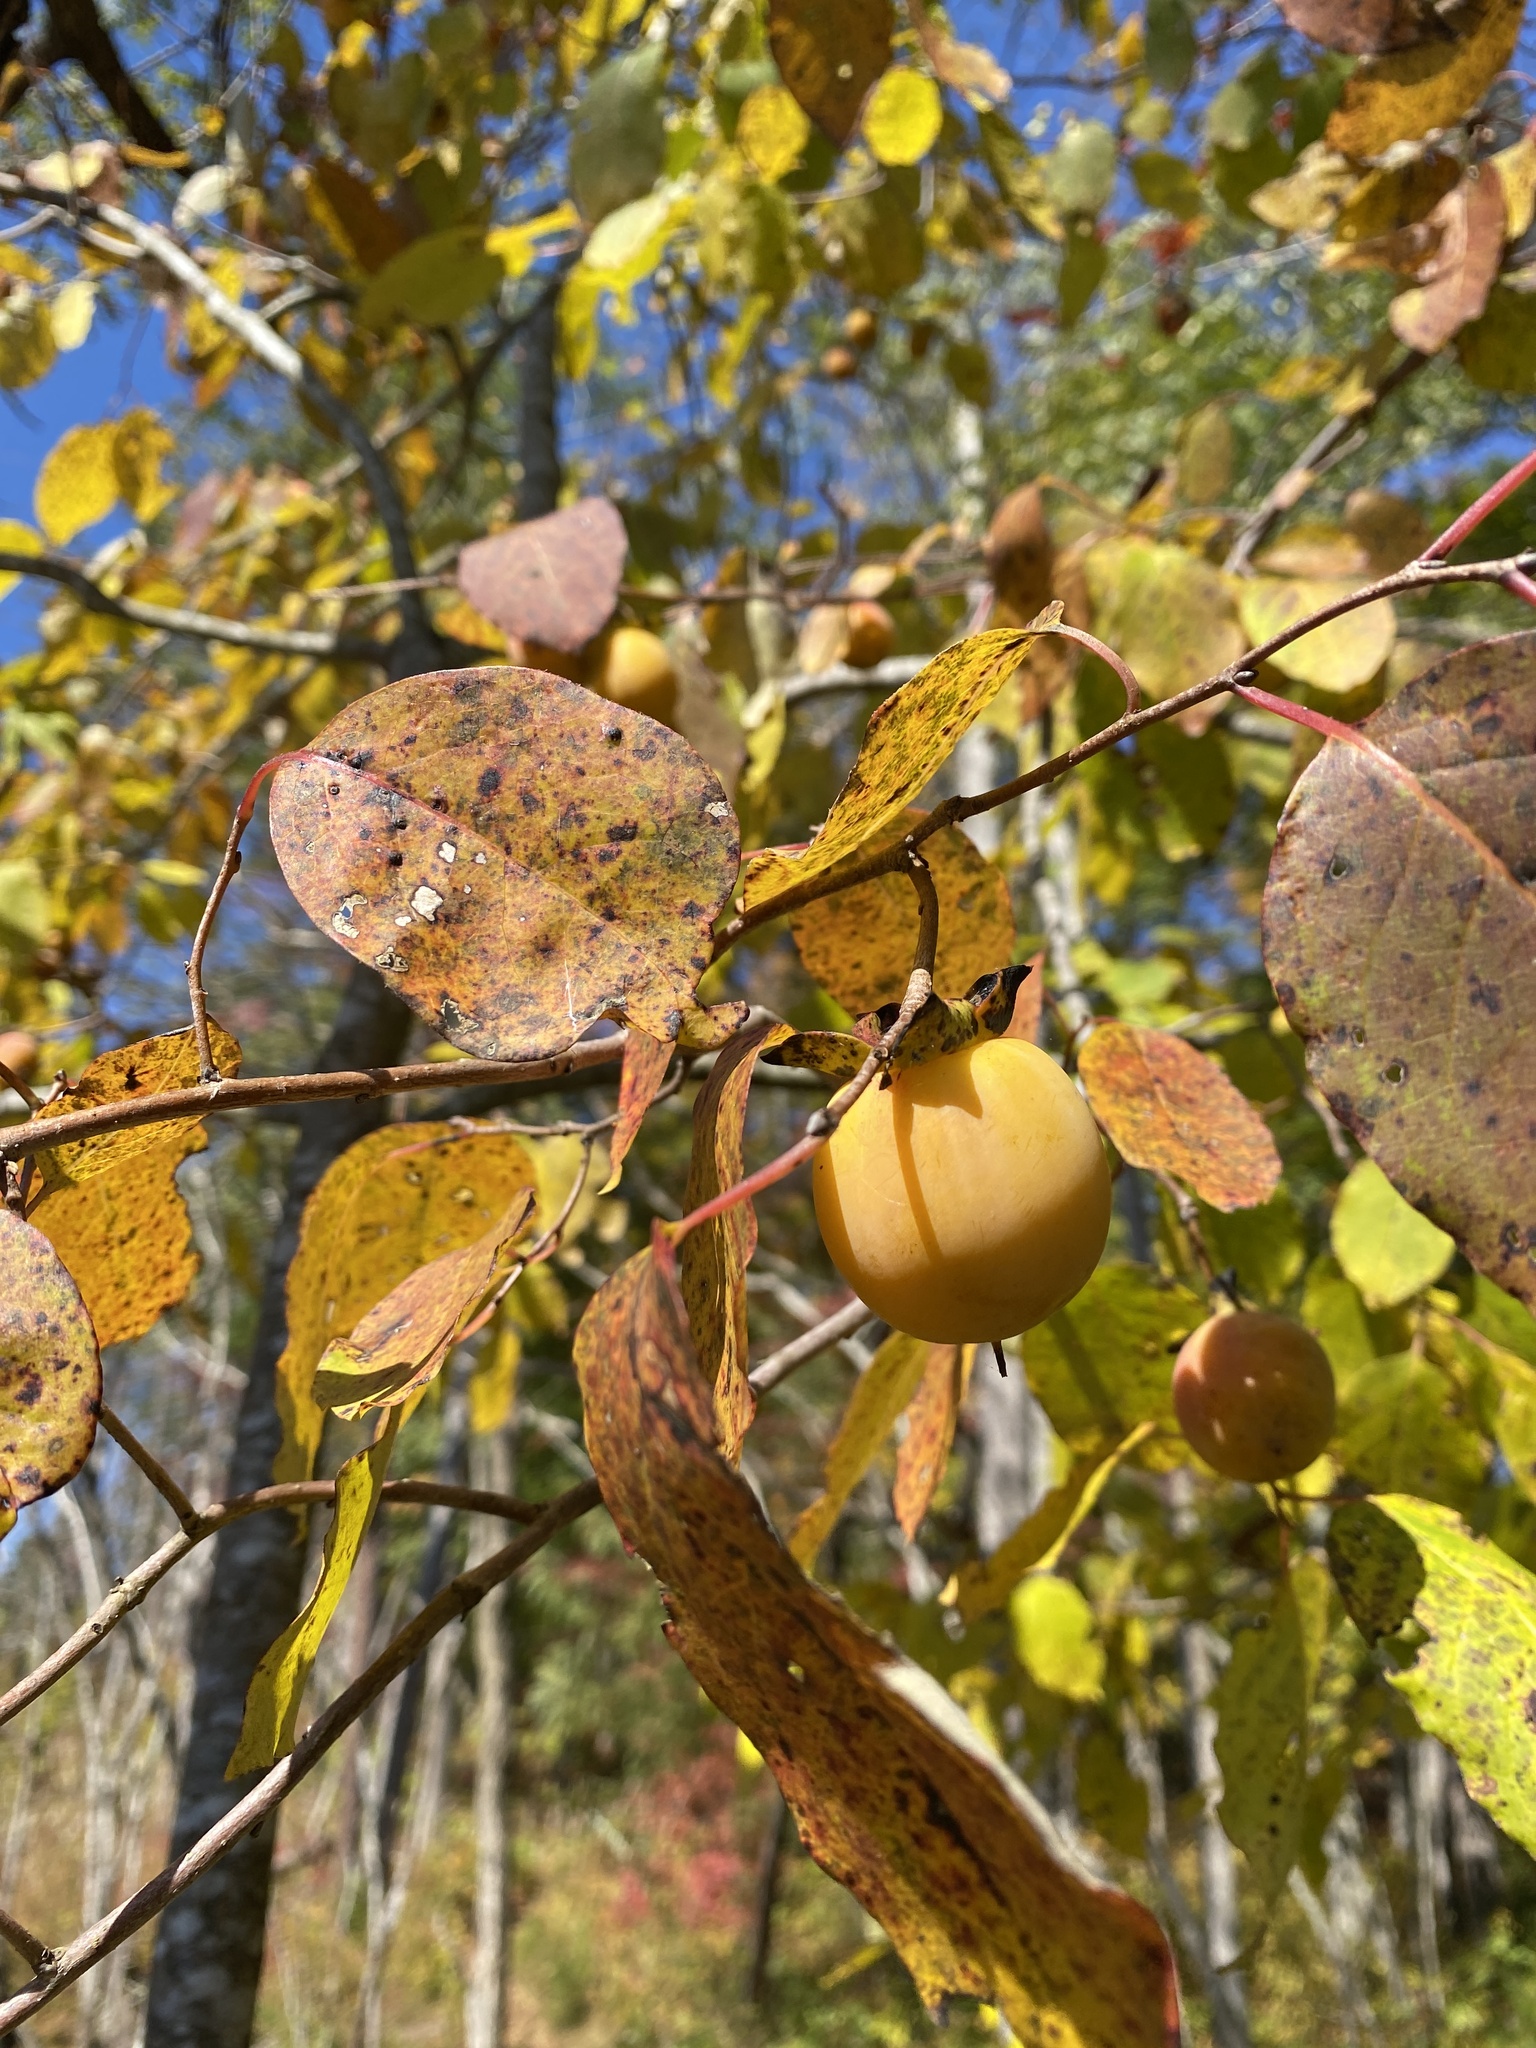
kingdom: Plantae
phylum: Tracheophyta
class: Magnoliopsida
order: Ericales
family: Ebenaceae
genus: Diospyros
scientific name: Diospyros virginiana
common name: Persimmon
